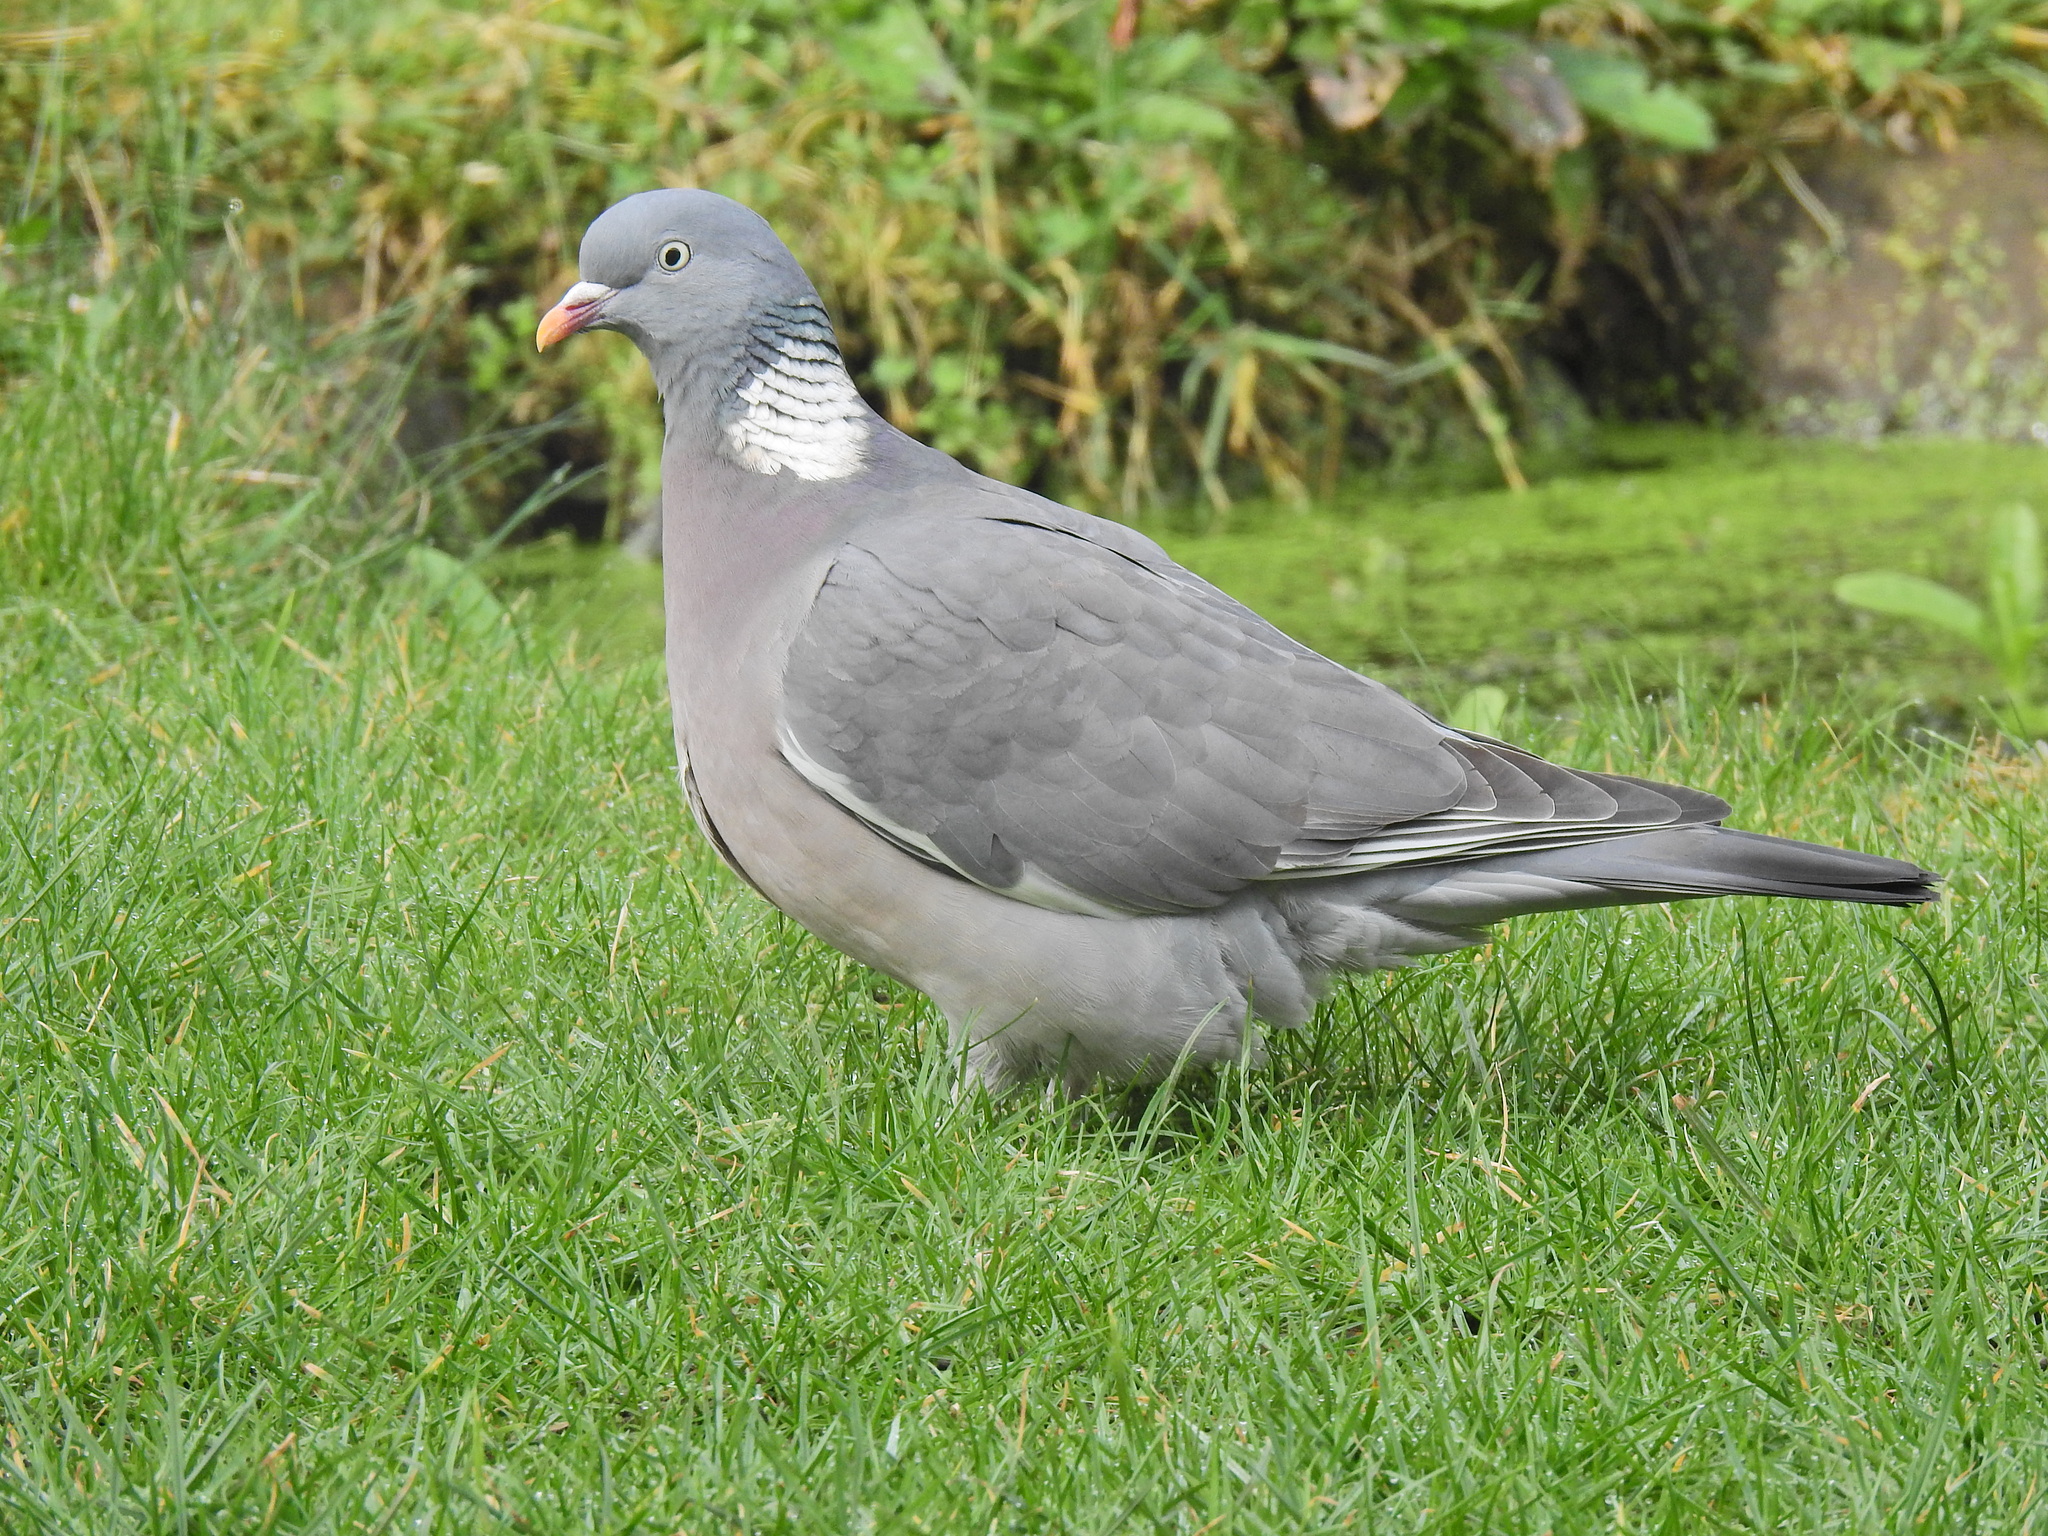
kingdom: Animalia
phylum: Chordata
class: Aves
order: Columbiformes
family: Columbidae
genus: Columba
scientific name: Columba palumbus
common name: Common wood pigeon
